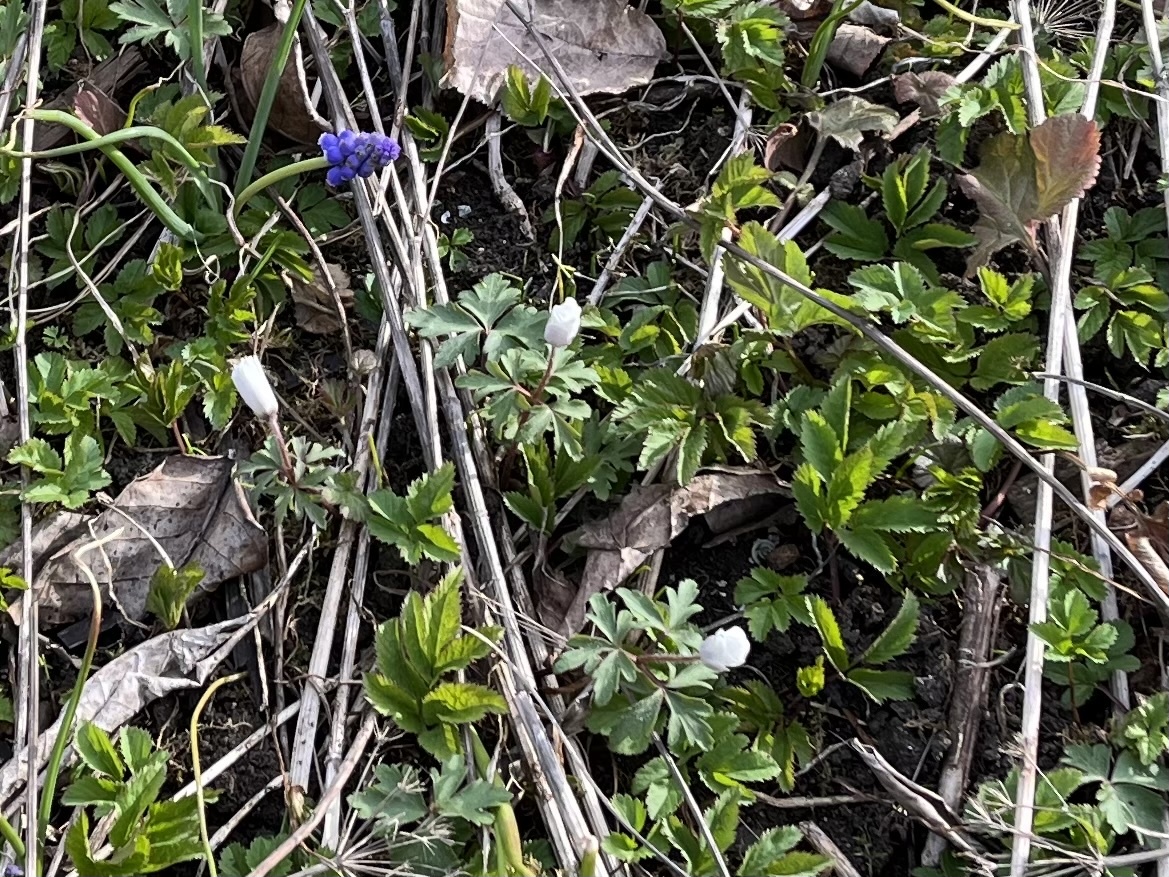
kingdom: Plantae
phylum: Tracheophyta
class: Magnoliopsida
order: Ranunculales
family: Ranunculaceae
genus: Anemone
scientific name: Anemone blanda
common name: Balkan anemone
